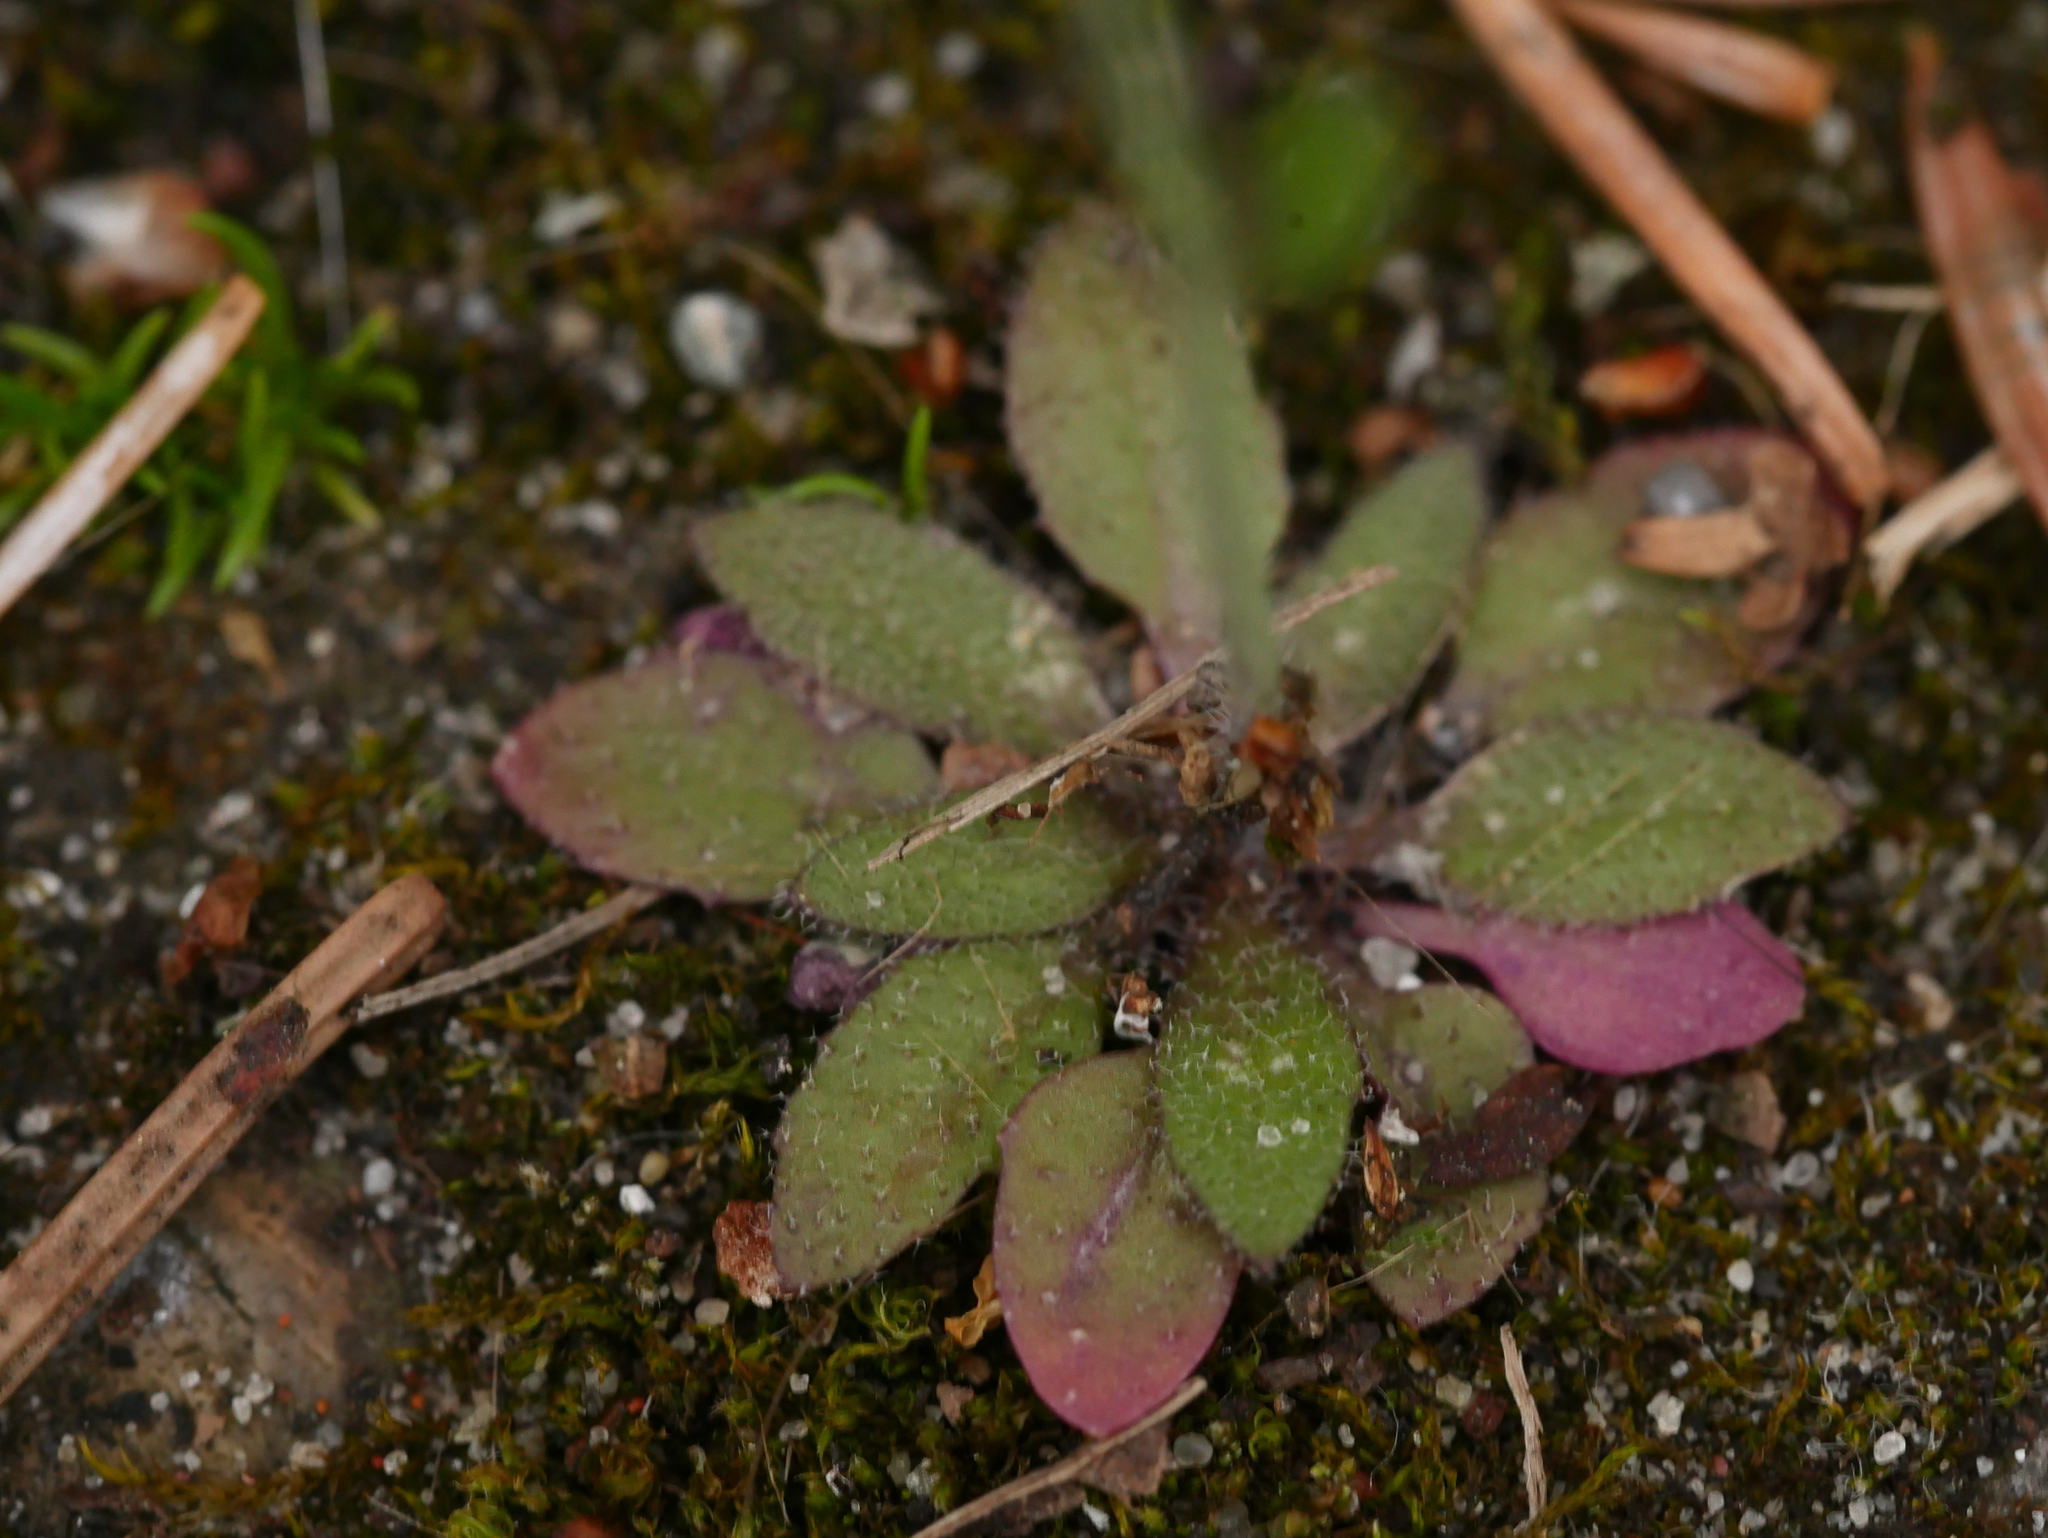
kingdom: Plantae
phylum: Tracheophyta
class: Magnoliopsida
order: Brassicales
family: Brassicaceae
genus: Arabidopsis
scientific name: Arabidopsis thaliana
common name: Thale cress
